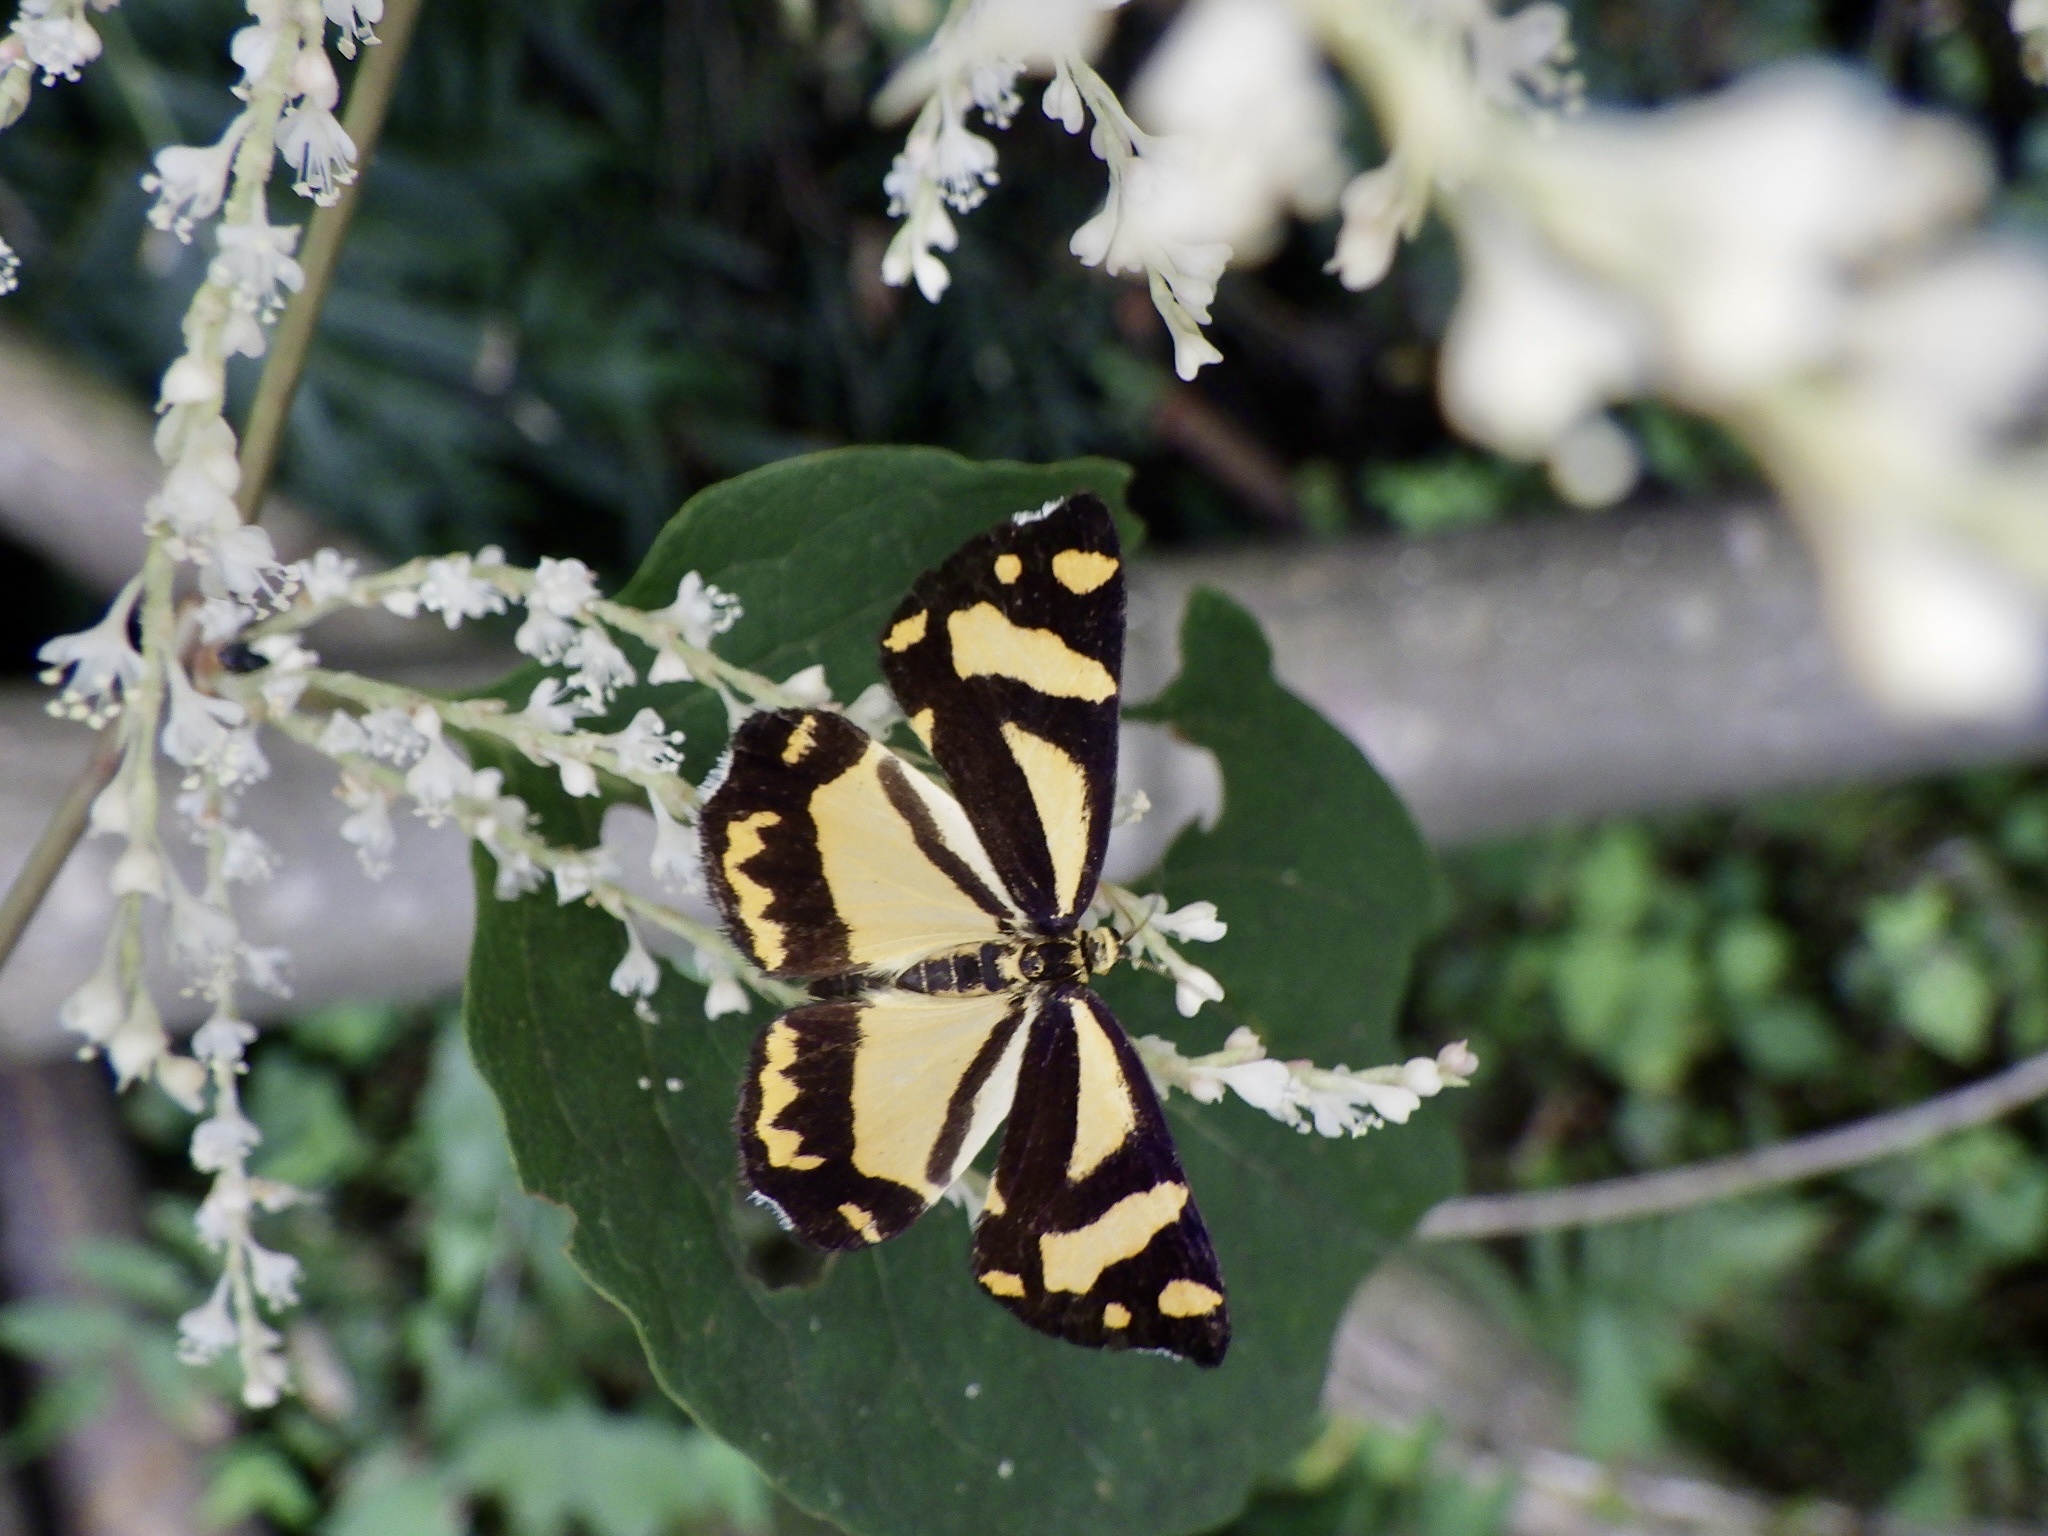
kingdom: Animalia
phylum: Arthropoda
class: Insecta
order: Lepidoptera
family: Epicopeiidae
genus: Psychostrophia
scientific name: Psychostrophia melanargia
